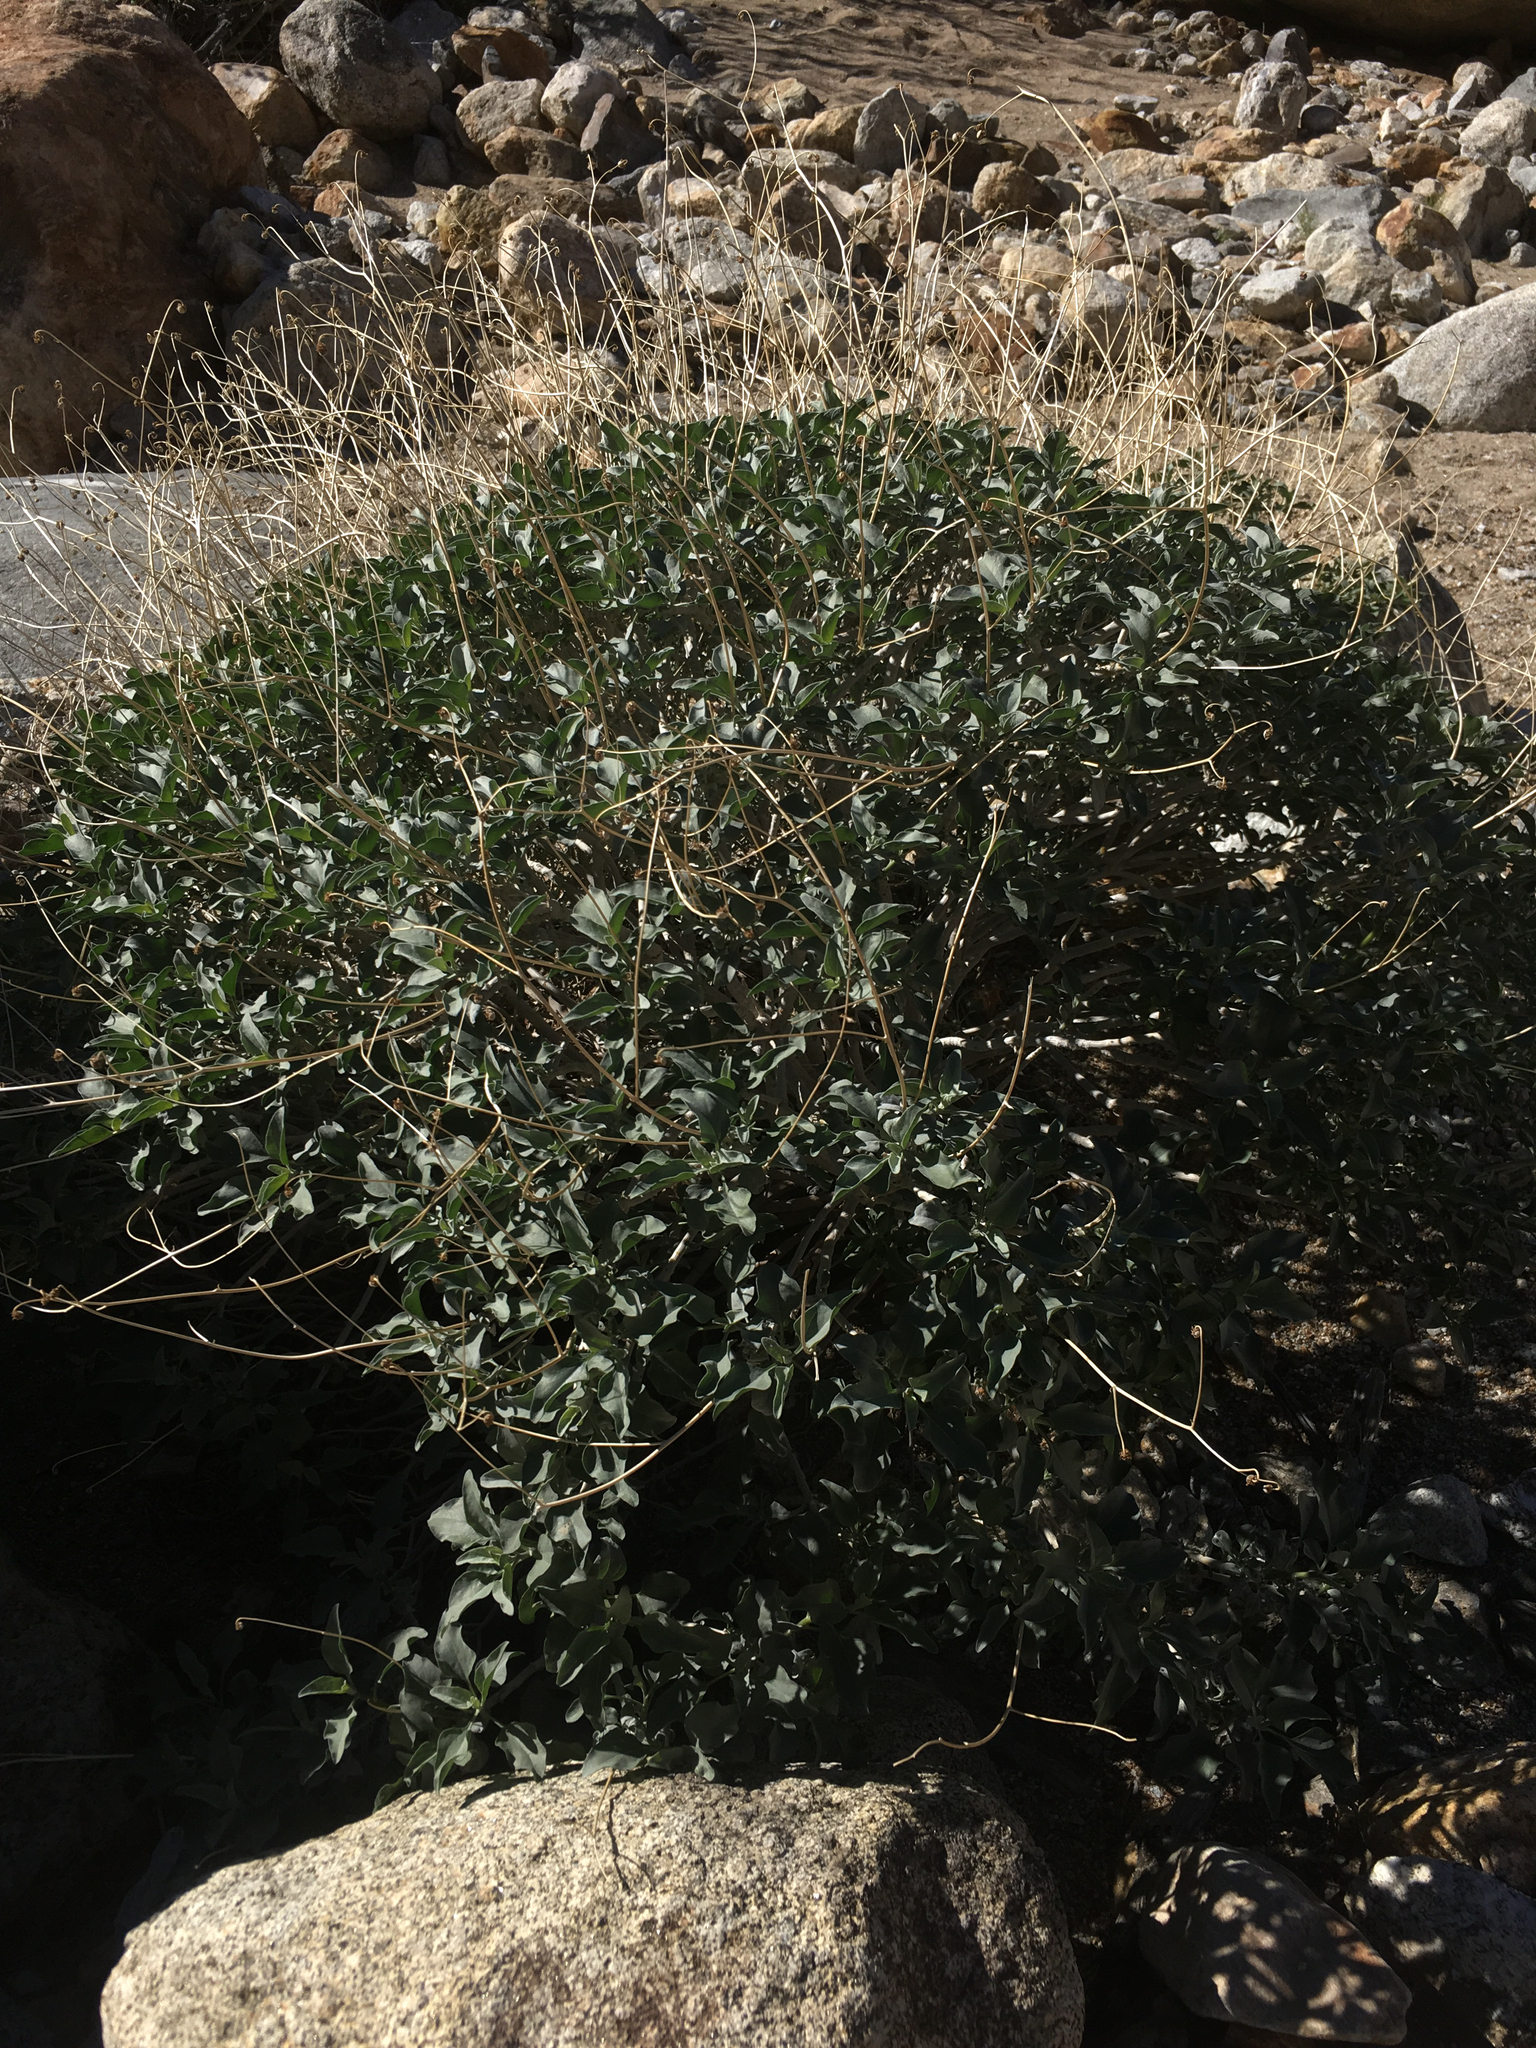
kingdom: Plantae
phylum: Tracheophyta
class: Magnoliopsida
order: Asterales
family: Asteraceae
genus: Encelia
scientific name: Encelia farinosa
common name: Brittlebush
